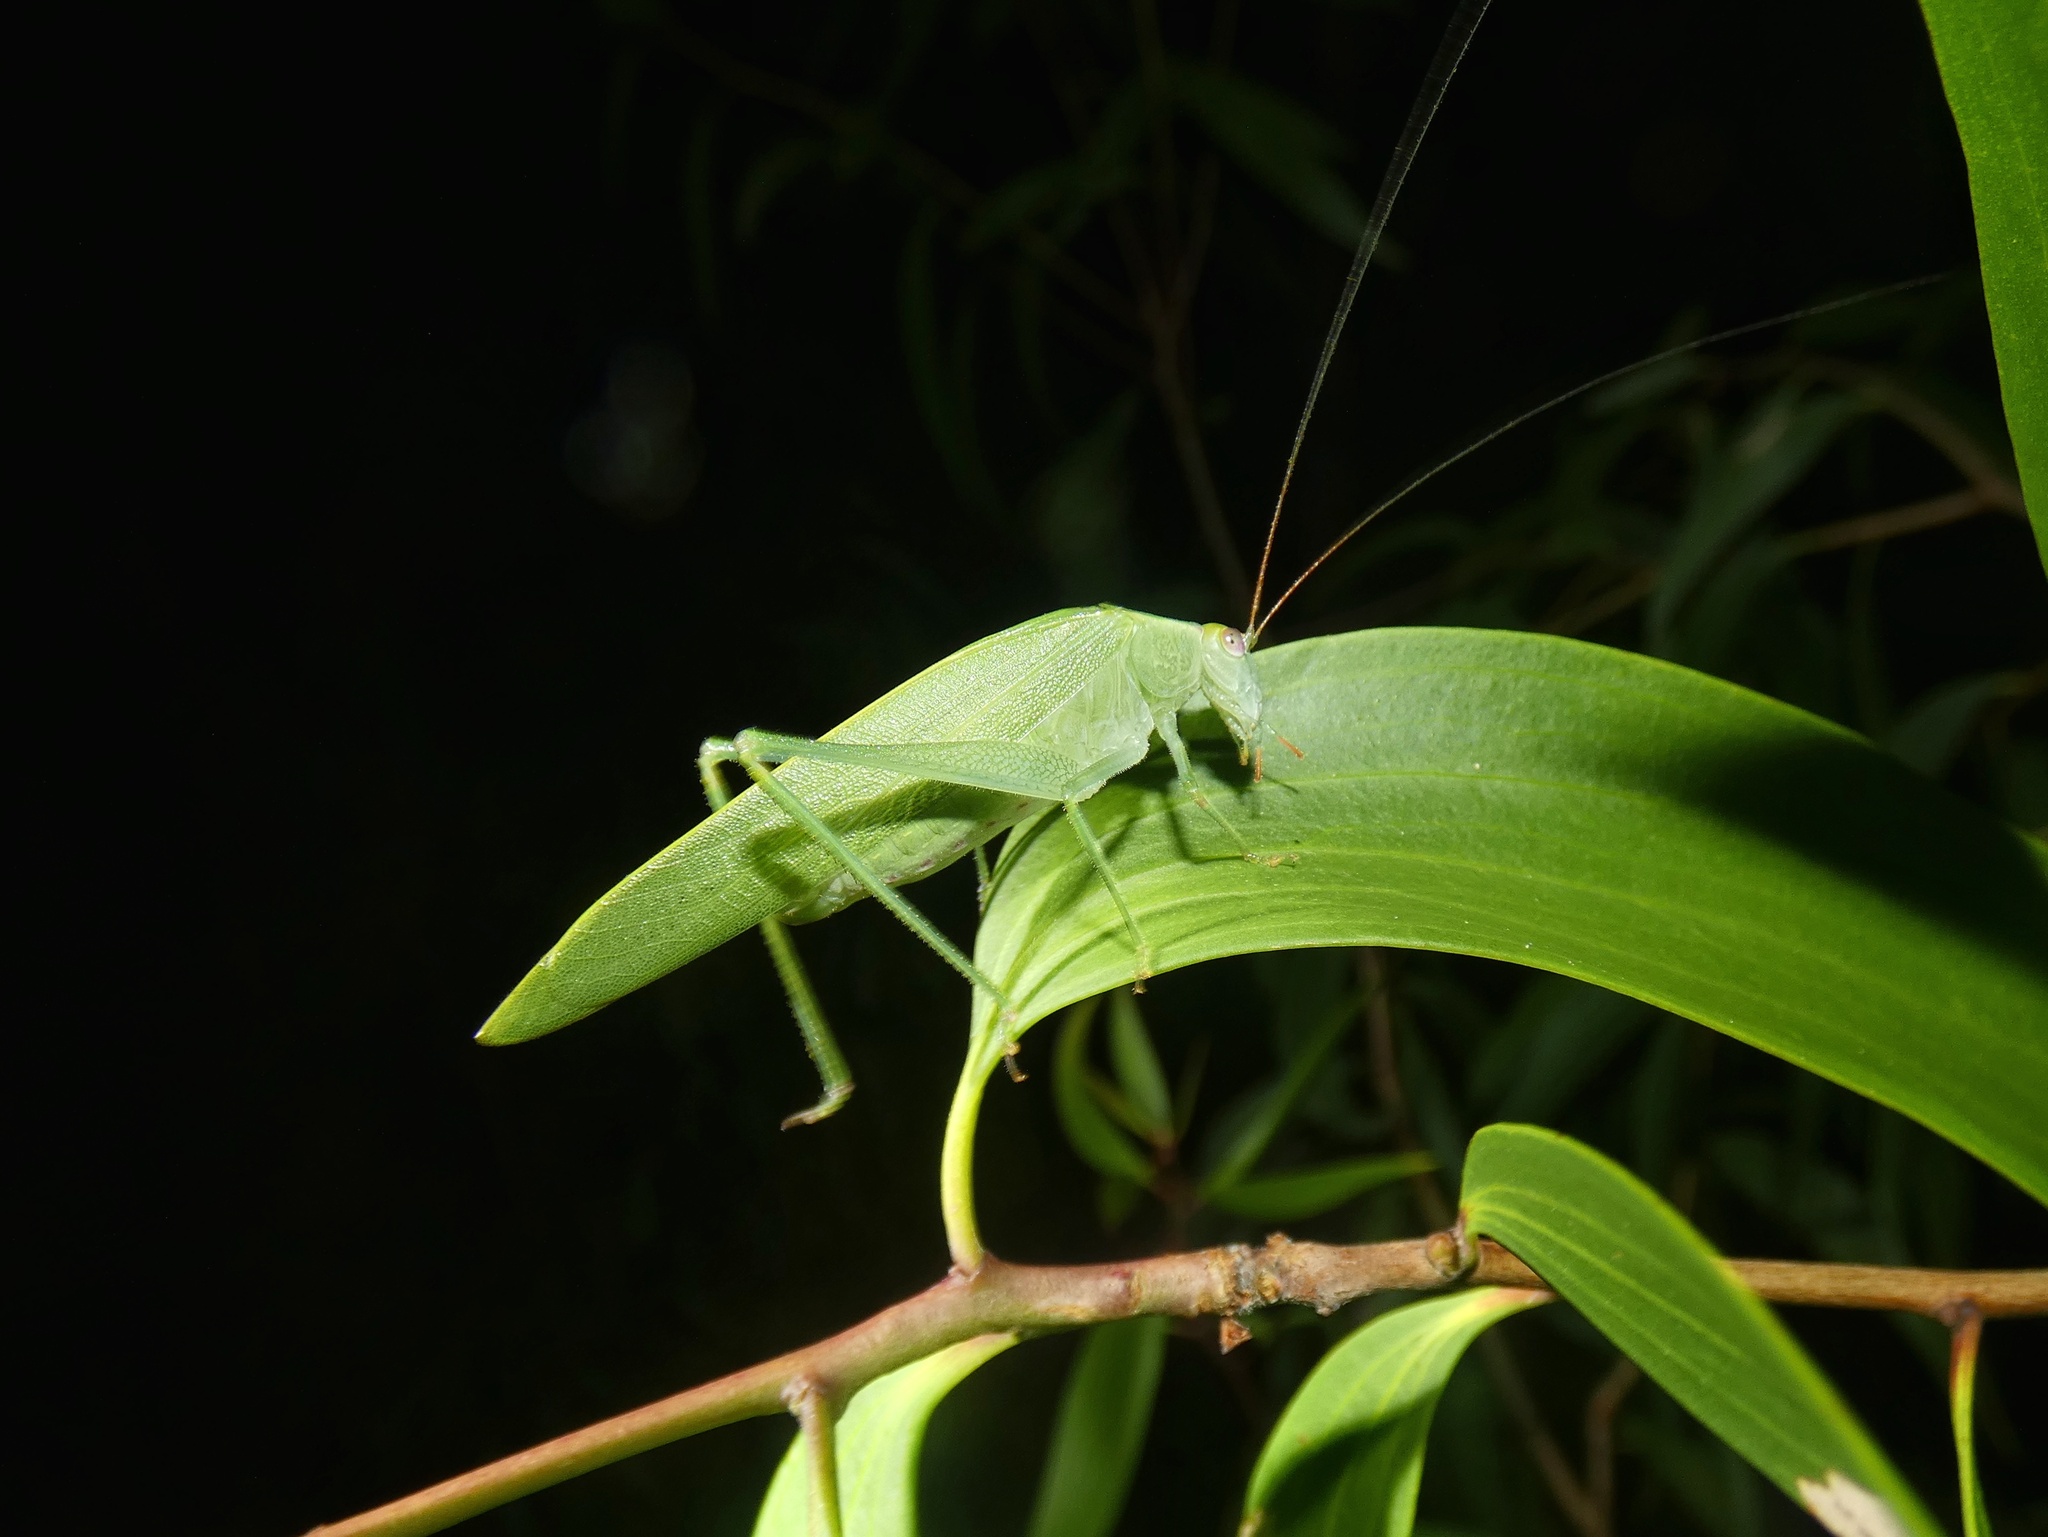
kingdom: Animalia
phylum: Arthropoda
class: Insecta
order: Orthoptera
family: Tettigoniidae
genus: Dicorypha
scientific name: Dicorypha furcifera
